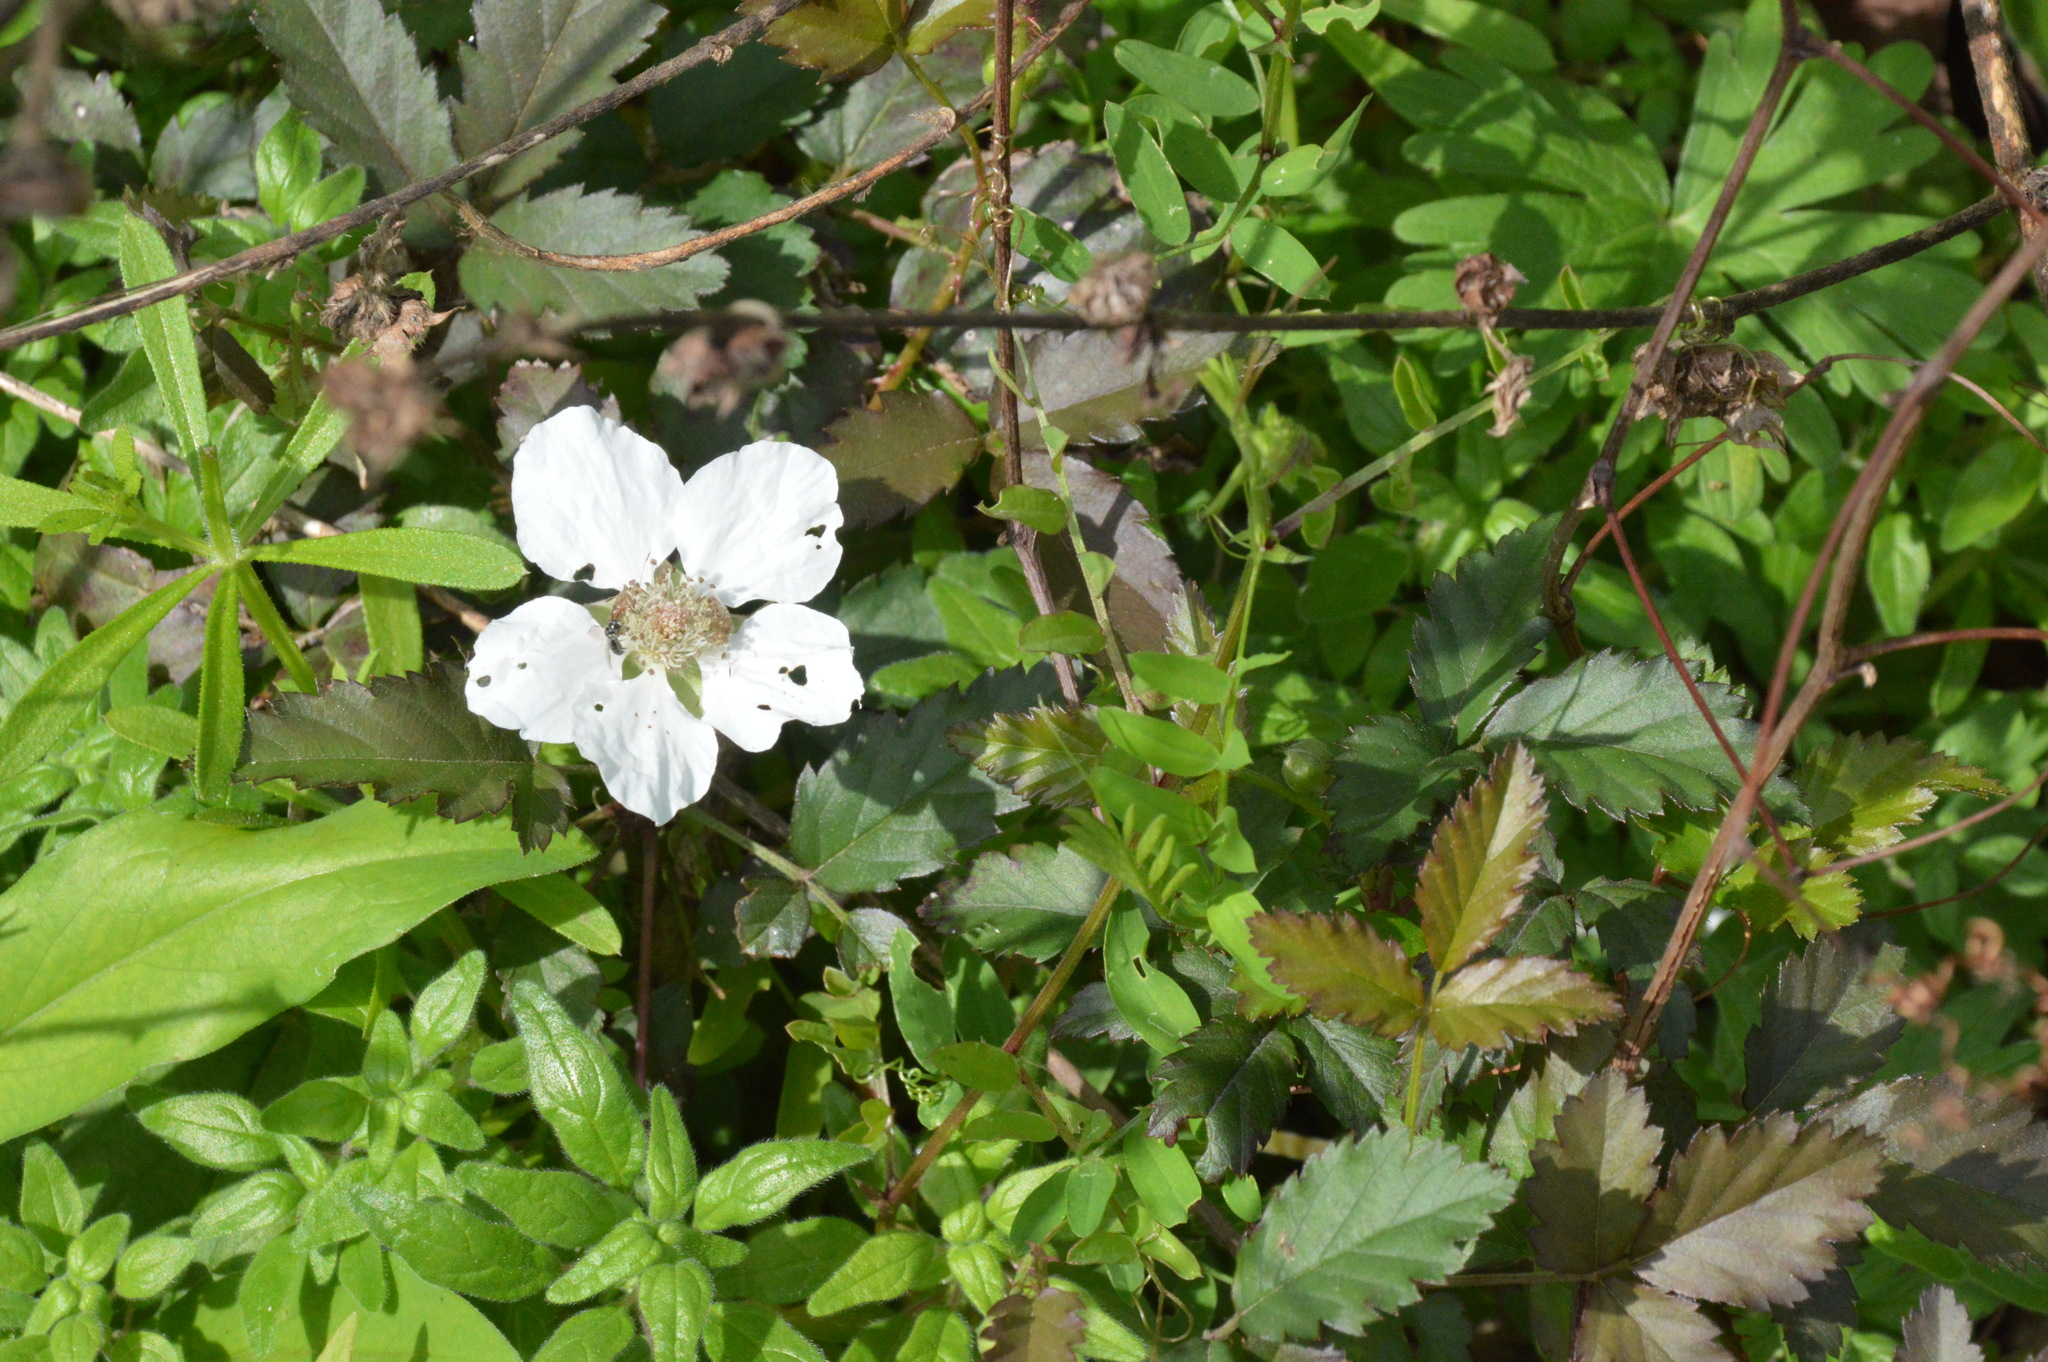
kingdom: Plantae
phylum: Tracheophyta
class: Magnoliopsida
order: Rosales
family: Rosaceae
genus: Rubus
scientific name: Rubus trivialis
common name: Southern dewberry
